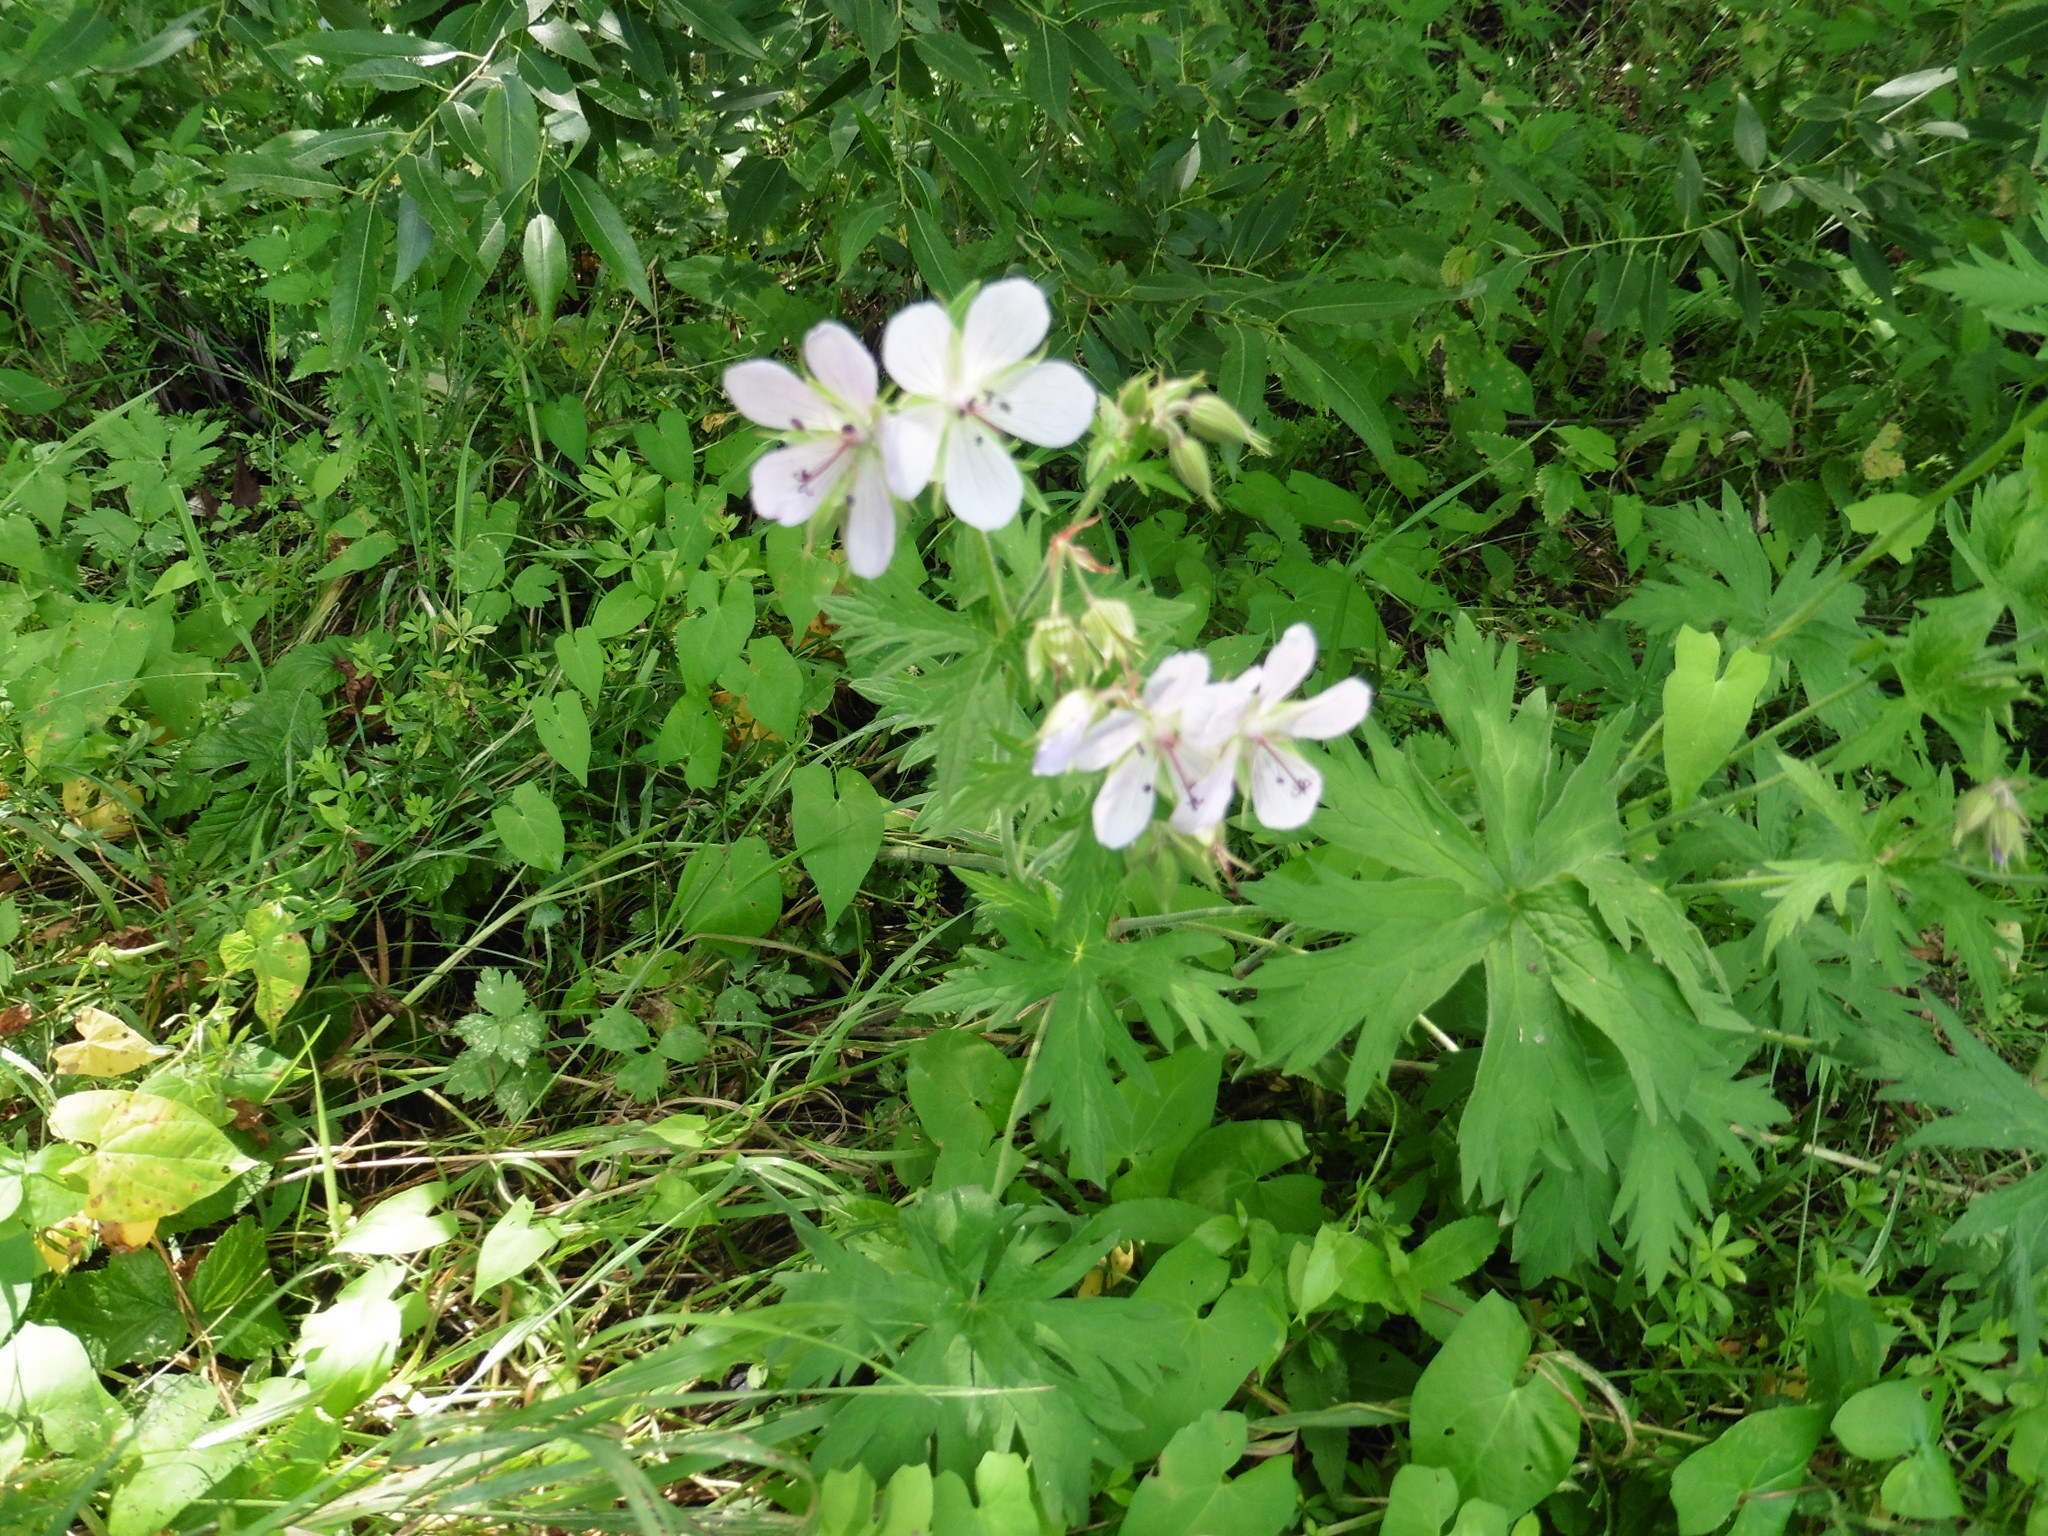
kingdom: Plantae
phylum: Tracheophyta
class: Magnoliopsida
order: Geraniales
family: Geraniaceae
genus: Geranium
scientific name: Geranium pratense
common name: Meadow crane's-bill
